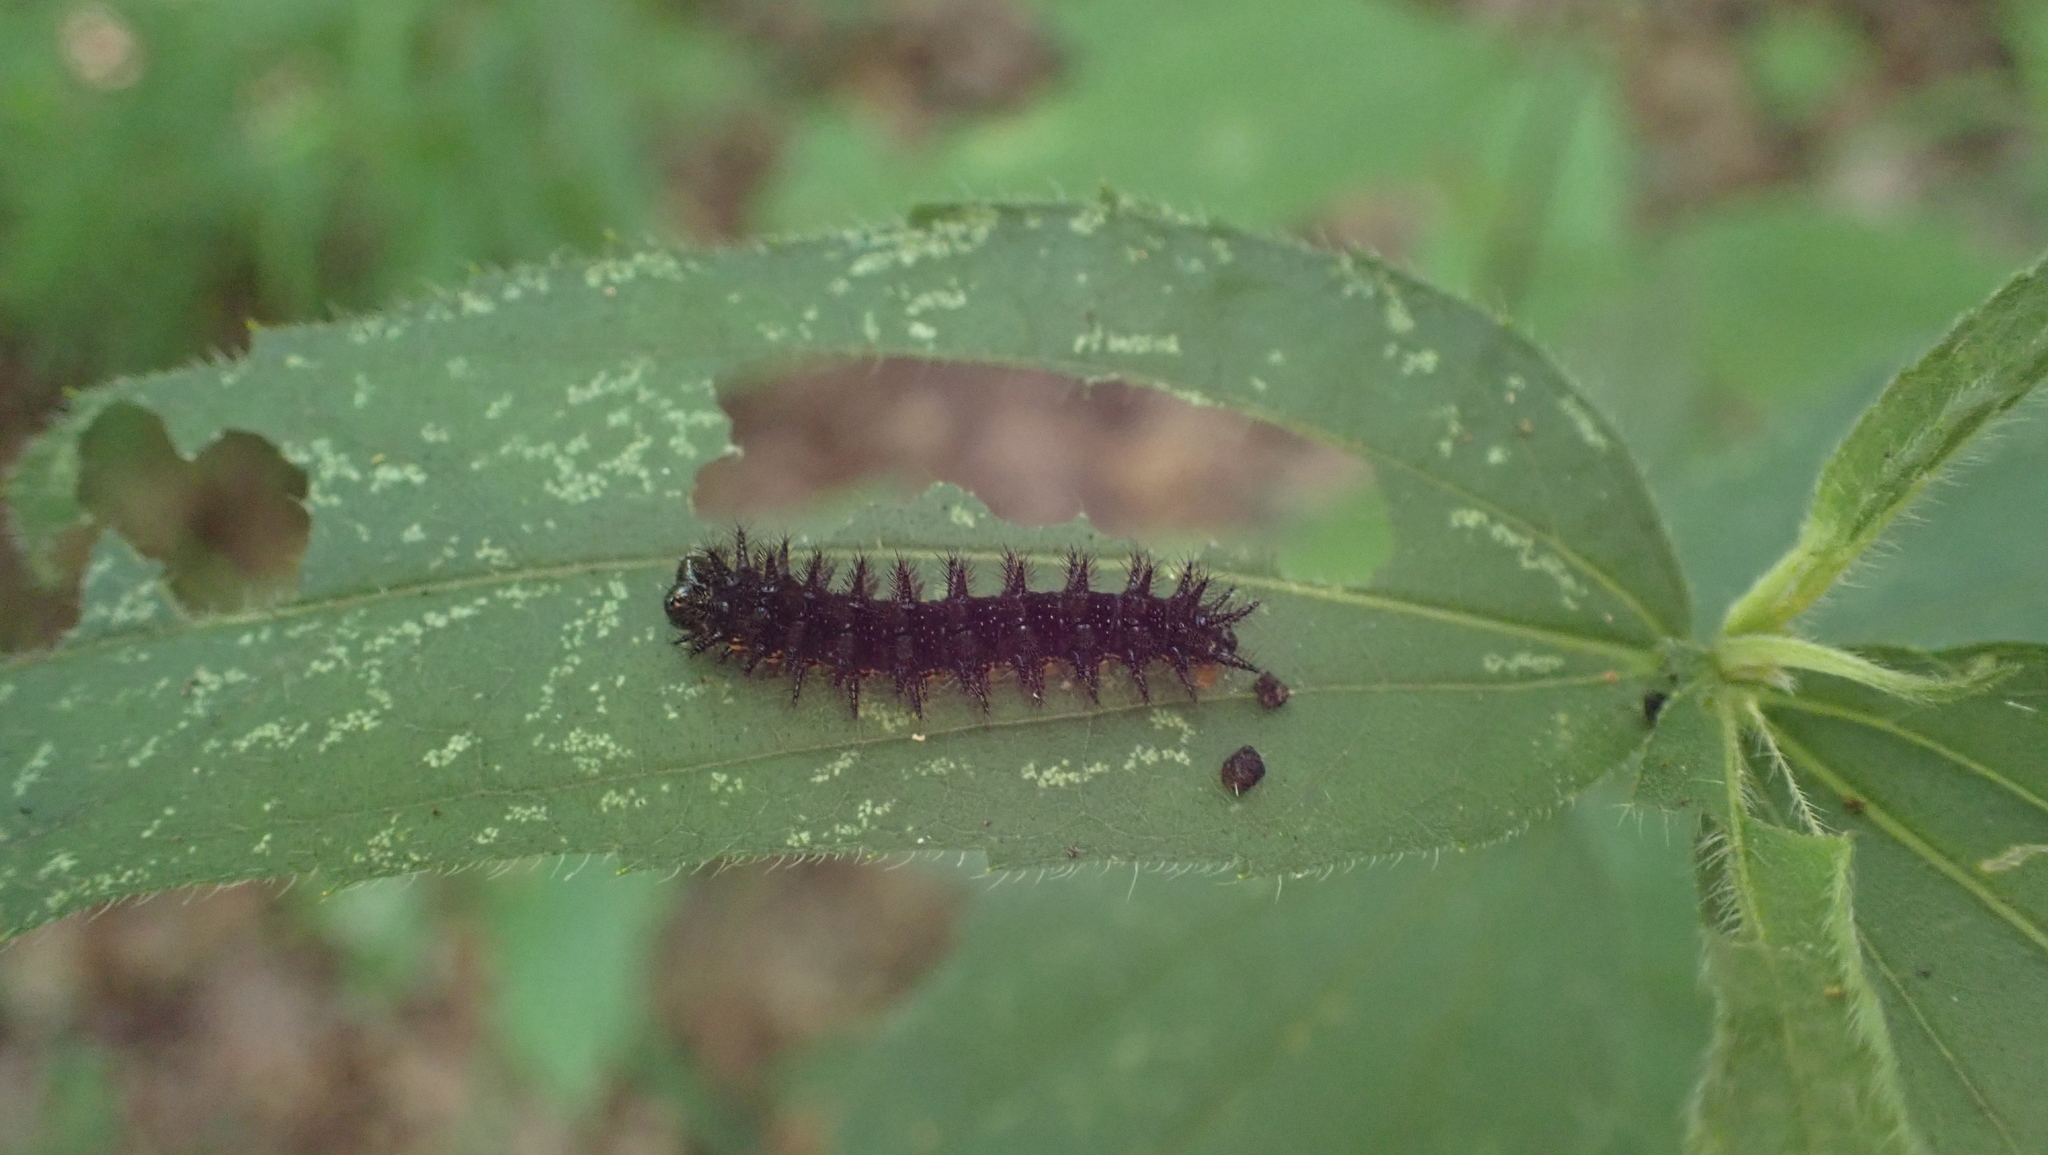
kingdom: Animalia
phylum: Arthropoda
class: Insecta
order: Lepidoptera
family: Nymphalidae
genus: Chlosyne
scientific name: Chlosyne nycteis
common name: Silvery checkerspot
